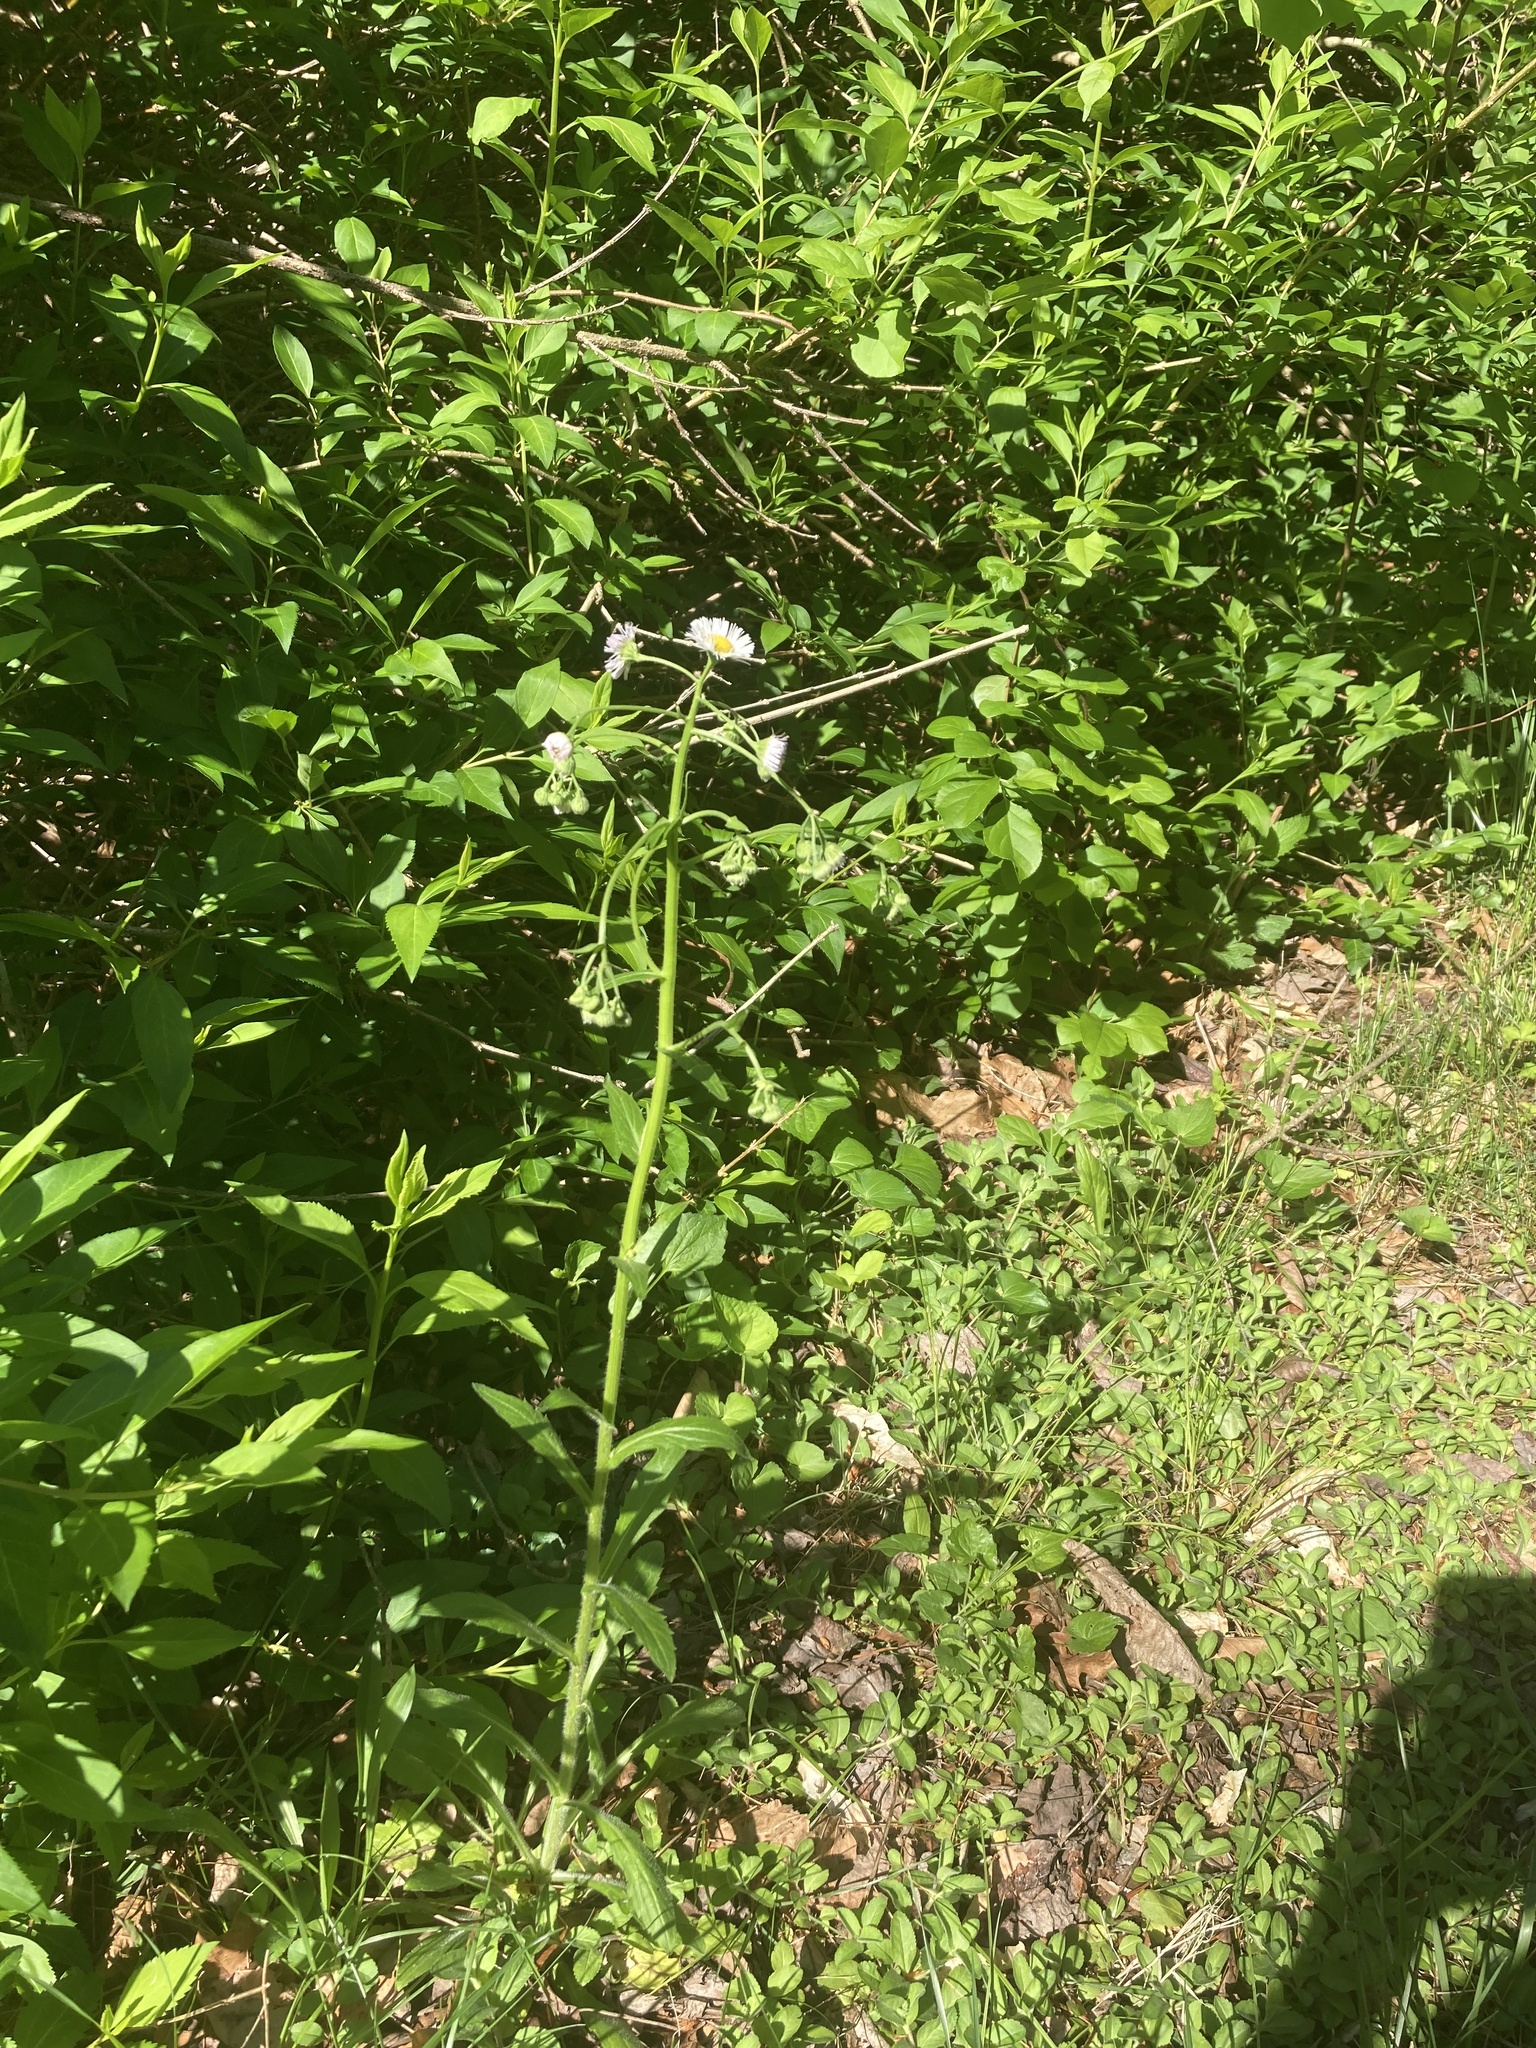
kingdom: Plantae
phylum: Tracheophyta
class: Magnoliopsida
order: Asterales
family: Asteraceae
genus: Erigeron
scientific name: Erigeron philadelphicus
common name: Robin's-plantain
